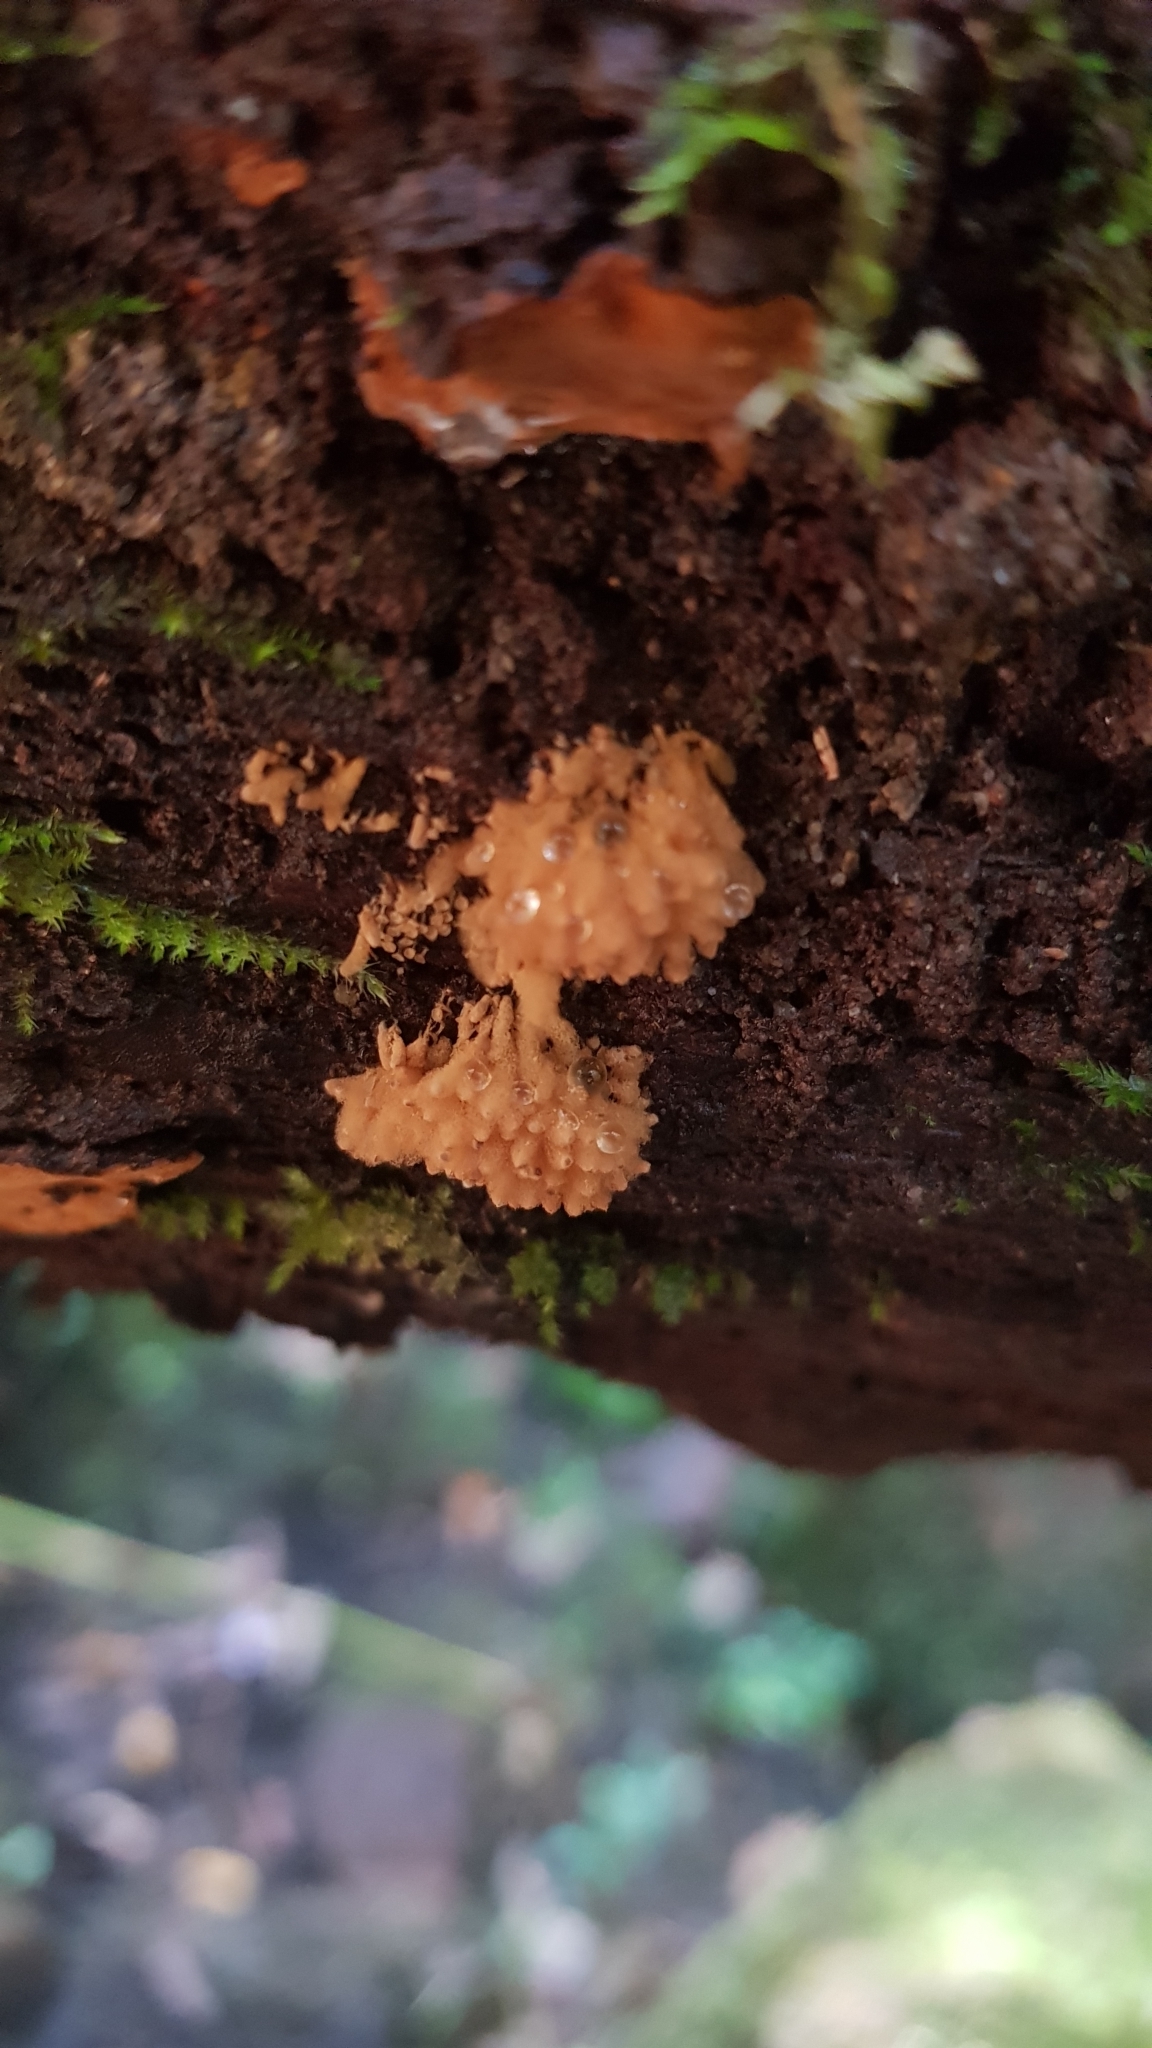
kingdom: Protozoa
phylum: Mycetozoa
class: Myxomycetes
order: Trichiales
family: Arcyriaceae
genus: Arcyria
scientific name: Arcyria obvelata
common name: Yellow carnival candy slime
